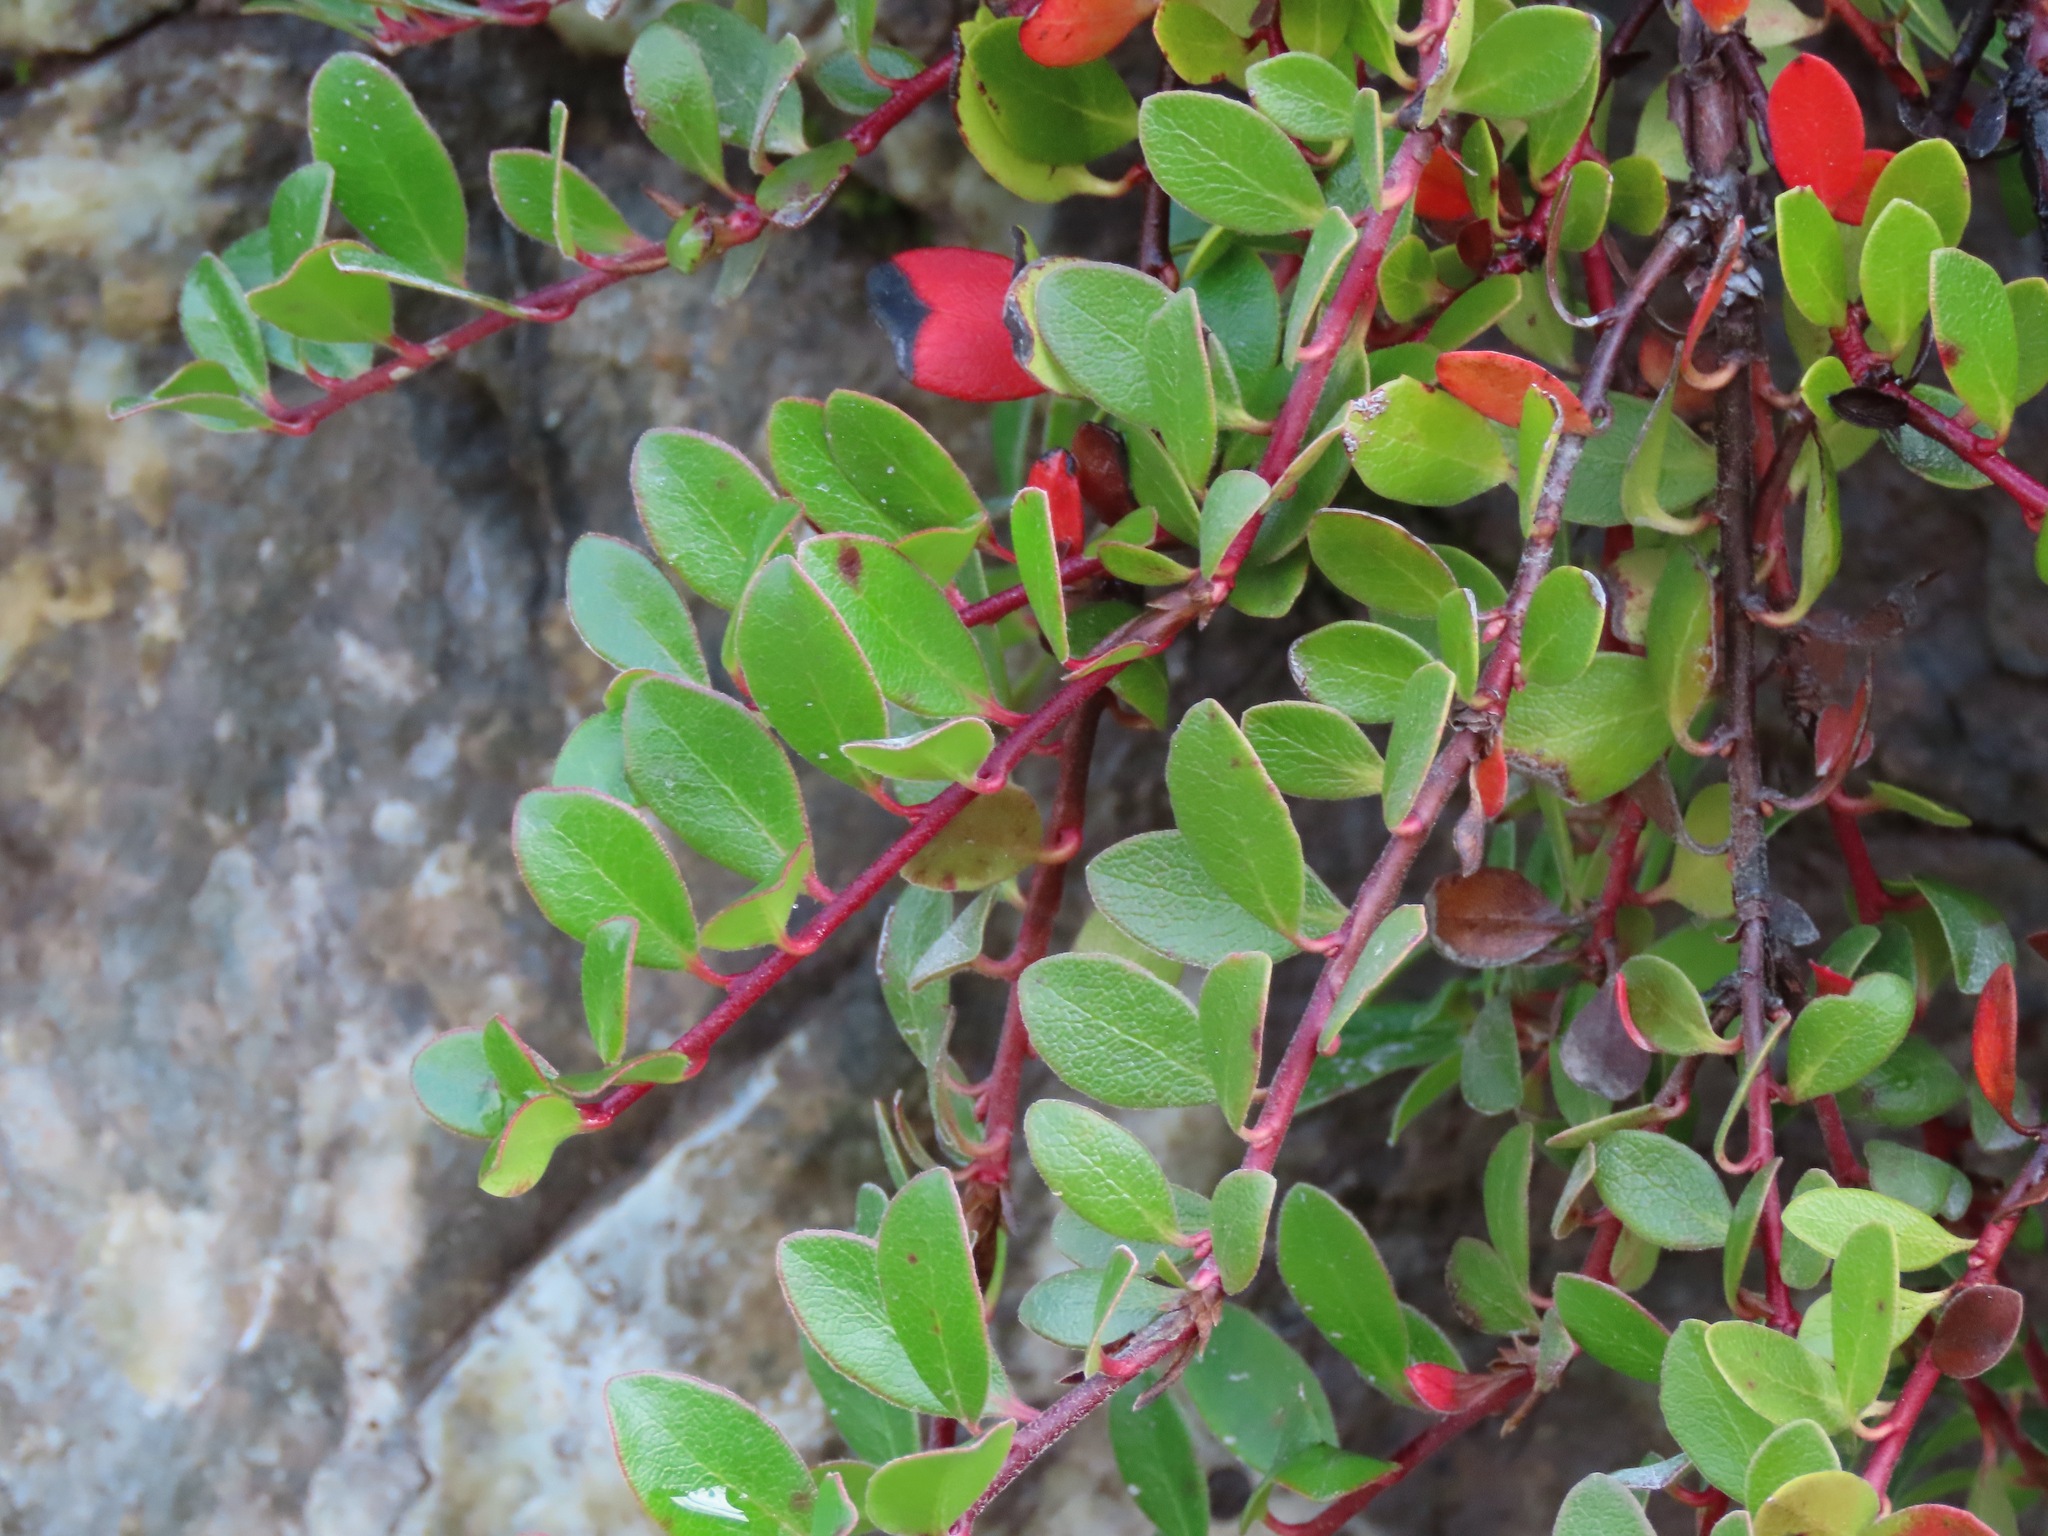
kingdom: Plantae
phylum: Tracheophyta
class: Magnoliopsida
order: Ericales
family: Ericaceae
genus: Arctostaphylos
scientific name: Arctostaphylos uva-ursi
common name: Bearberry
